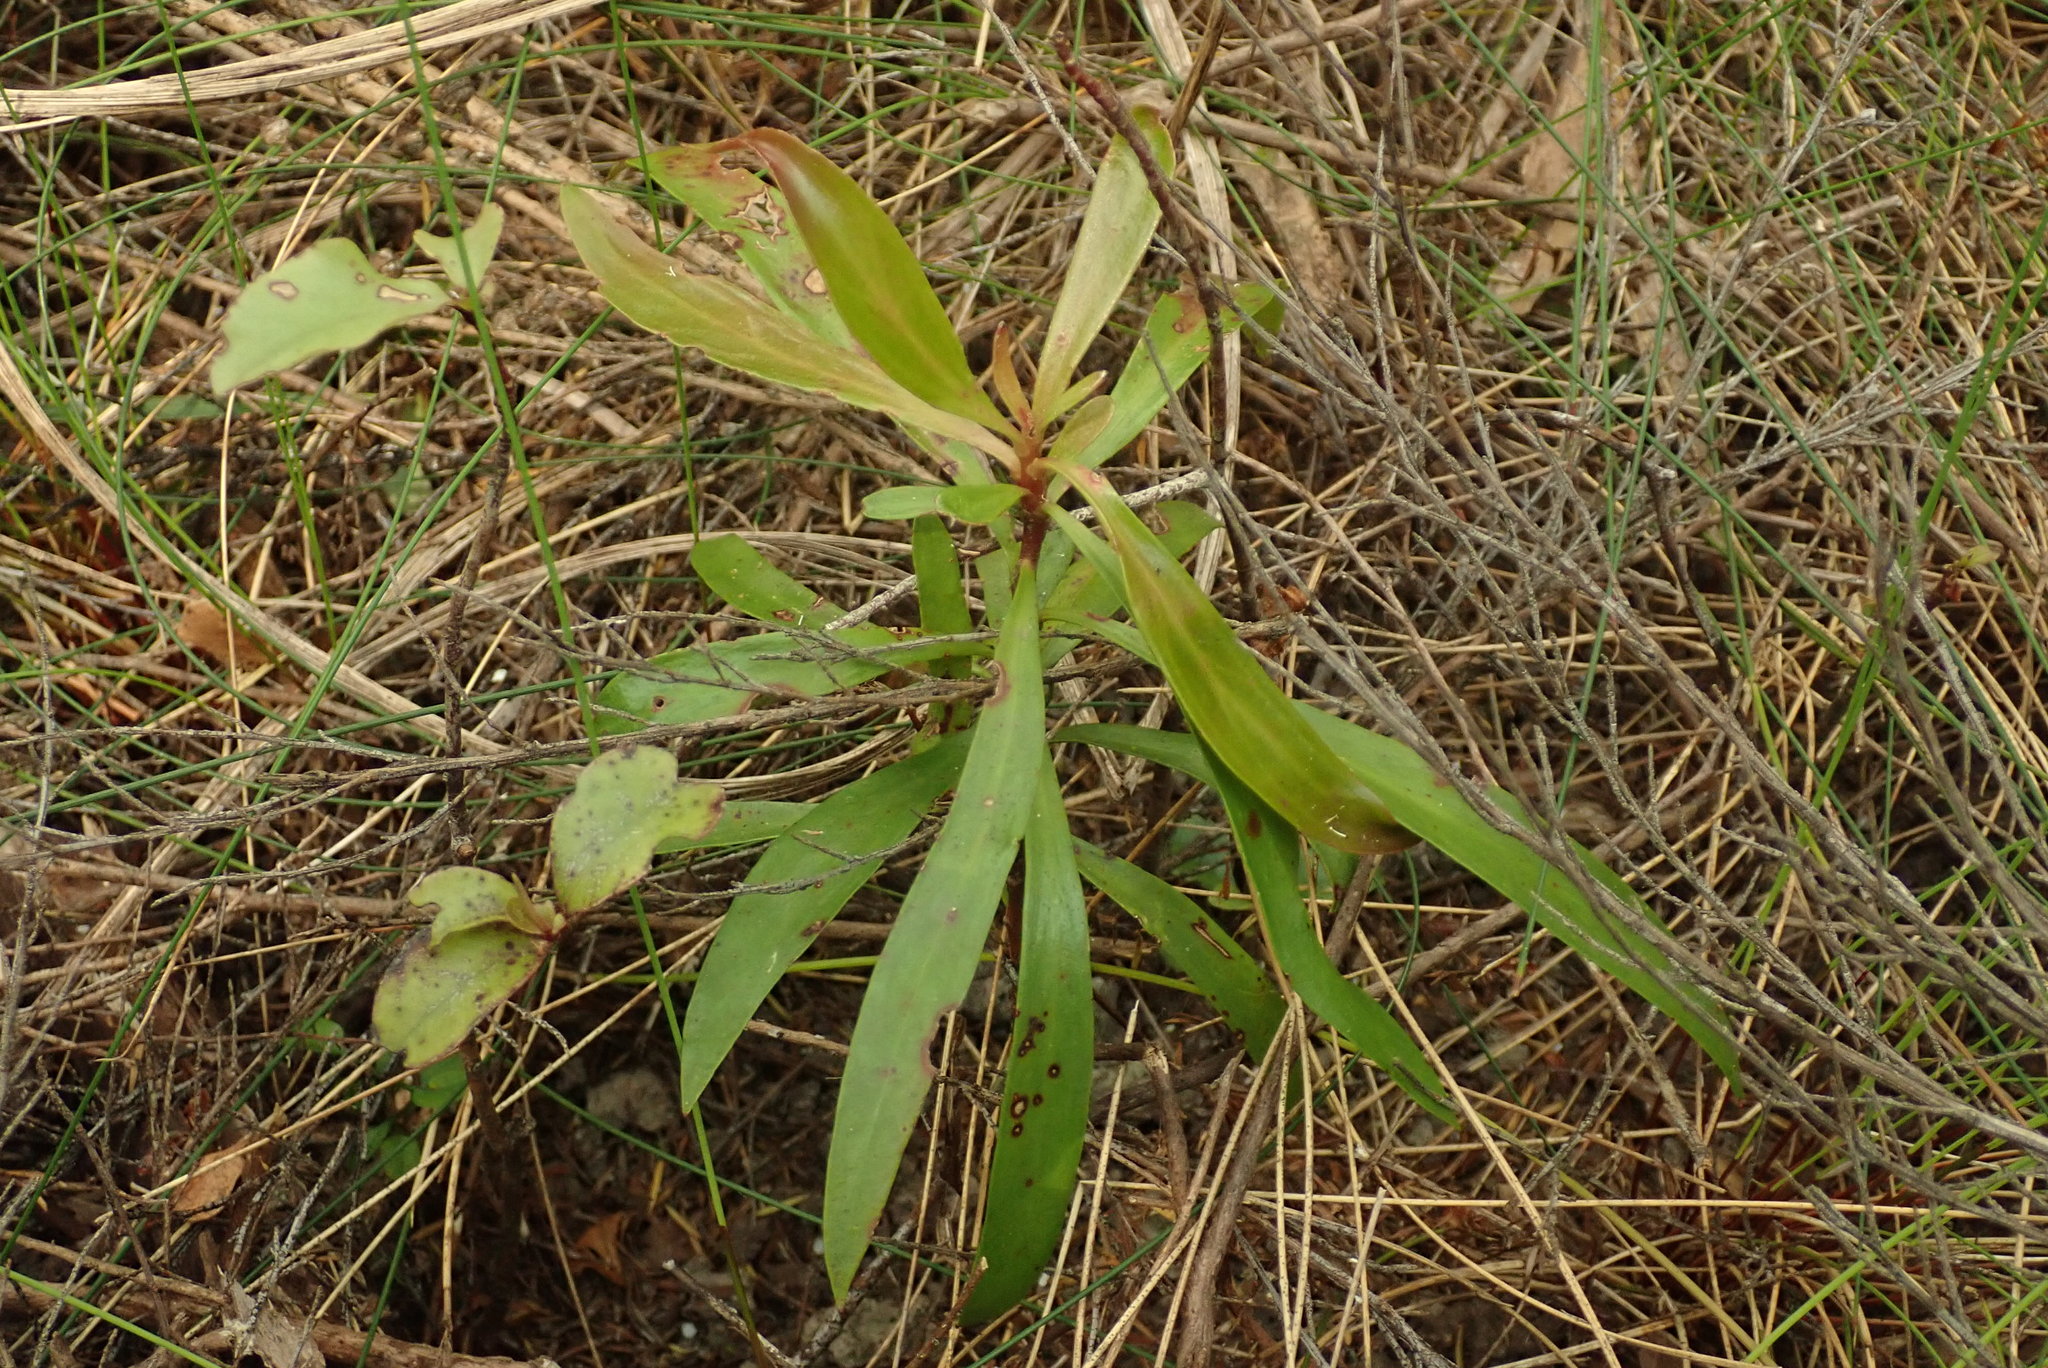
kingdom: Plantae
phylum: Tracheophyta
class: Magnoliopsida
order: Proteales
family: Proteaceae
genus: Toronia
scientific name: Toronia toru
